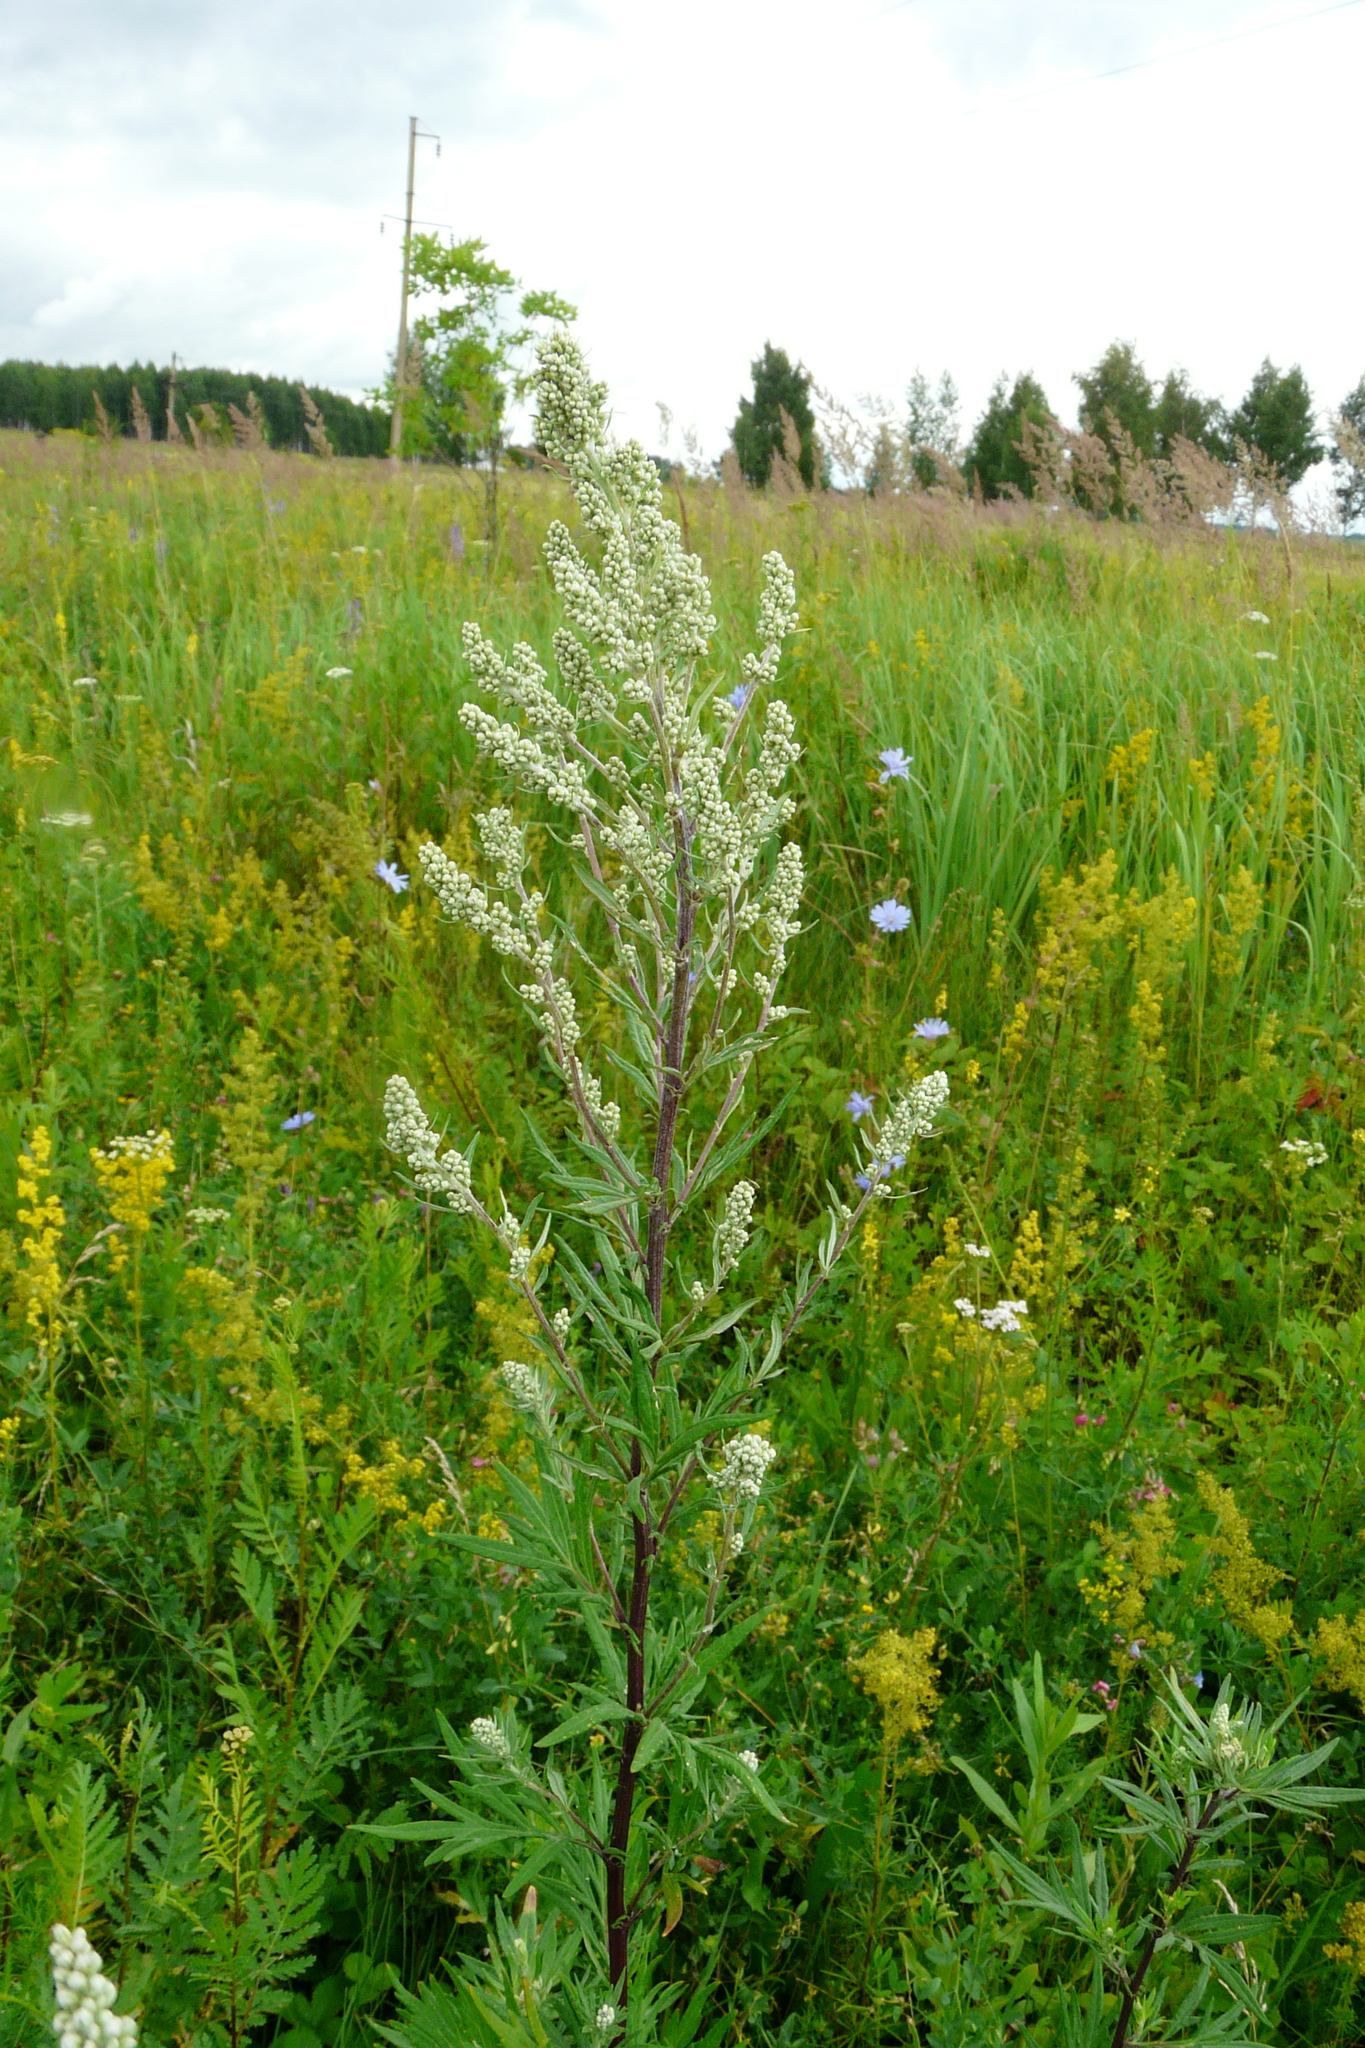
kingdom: Plantae
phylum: Tracheophyta
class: Magnoliopsida
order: Asterales
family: Asteraceae
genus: Artemisia
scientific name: Artemisia vulgaris
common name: Mugwort
